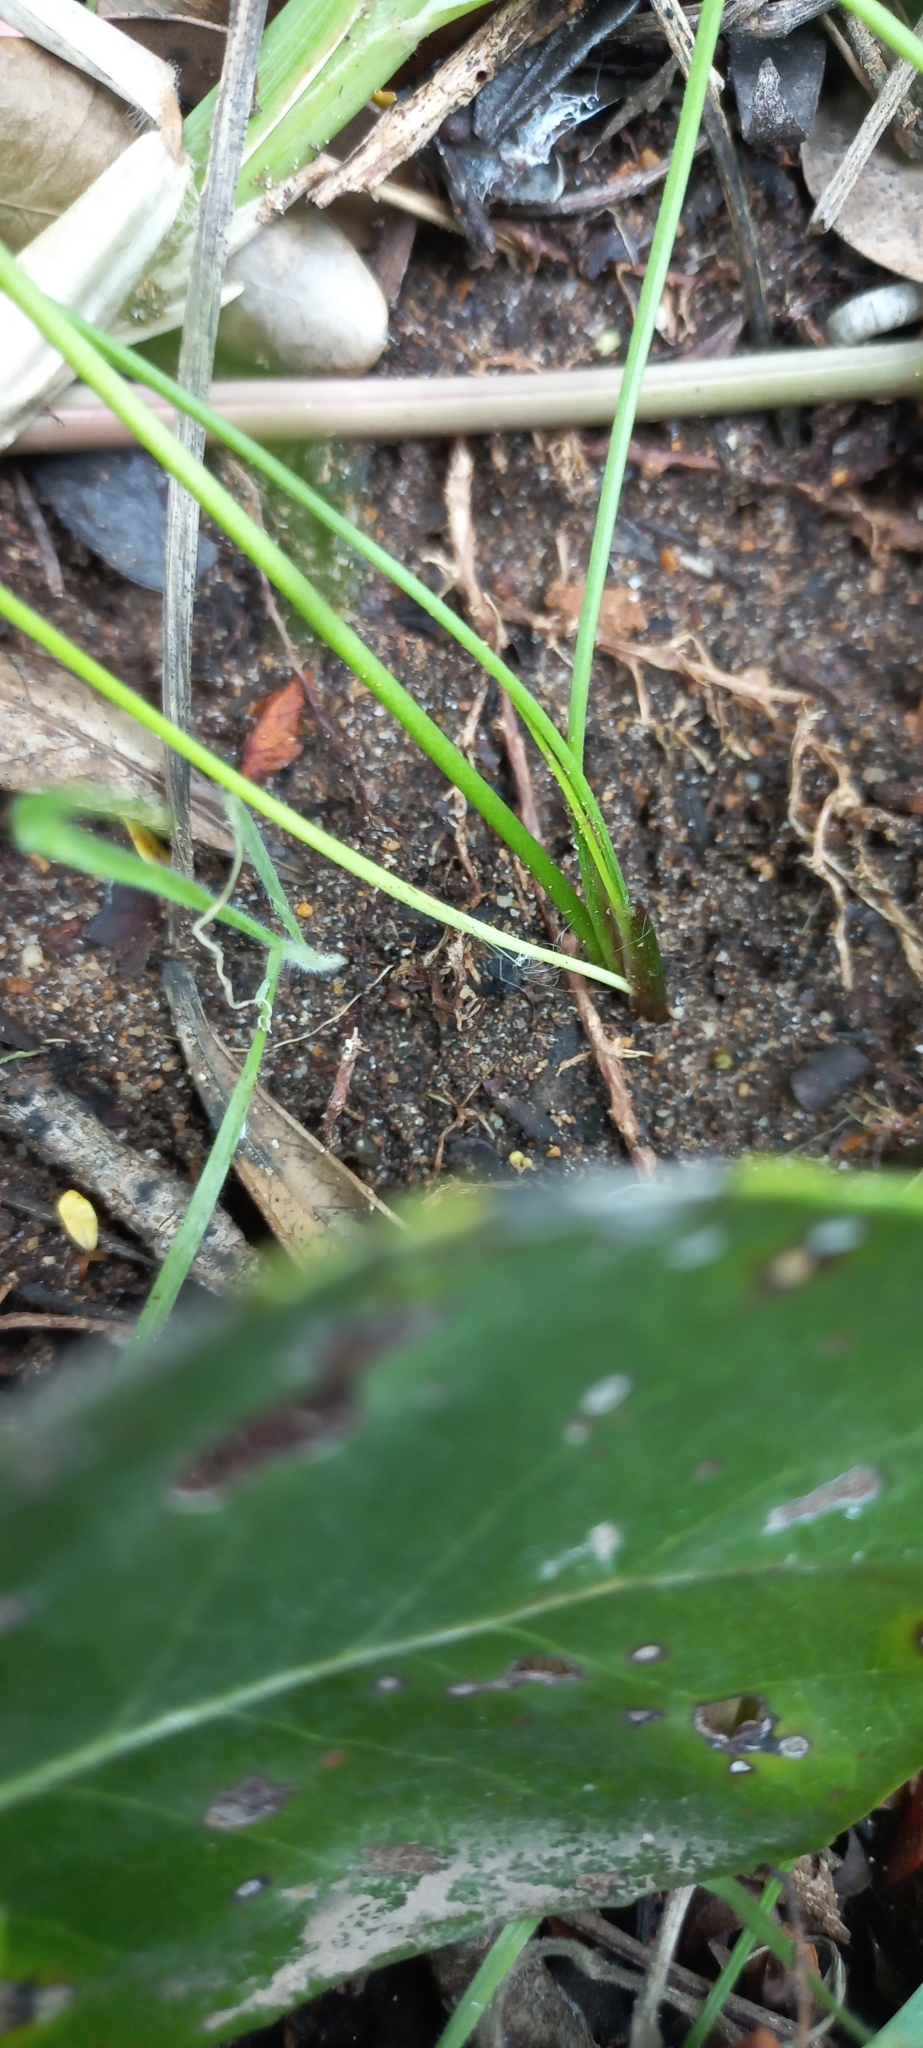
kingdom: Plantae
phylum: Tracheophyta
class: Liliopsida
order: Alismatales
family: Juncaginaceae
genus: Triglochin
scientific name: Triglochin bulbosa
